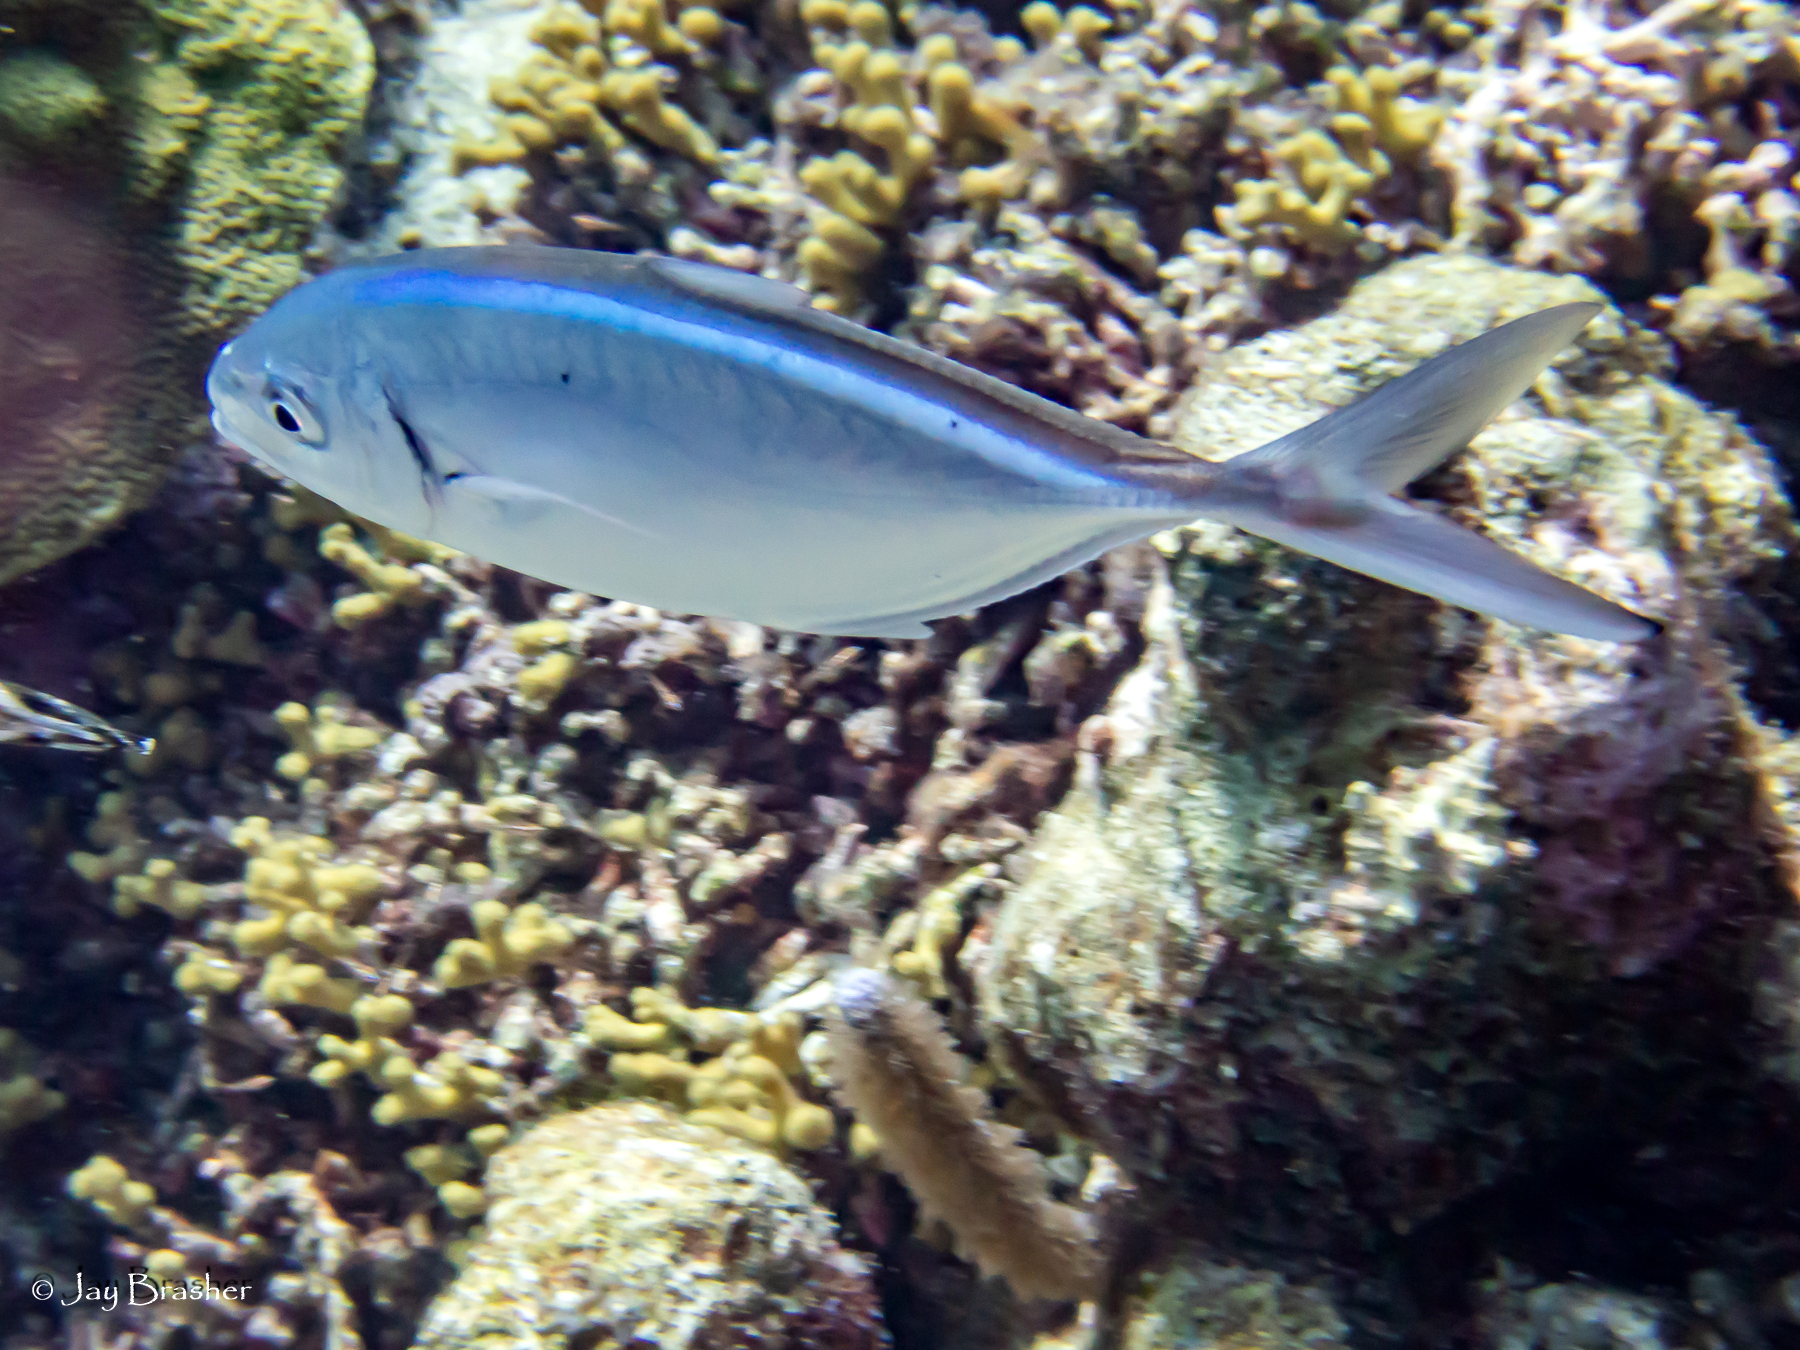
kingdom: Animalia
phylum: Chordata
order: Perciformes
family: Carangidae
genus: Caranx
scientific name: Caranx ruber
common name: Bar jack
